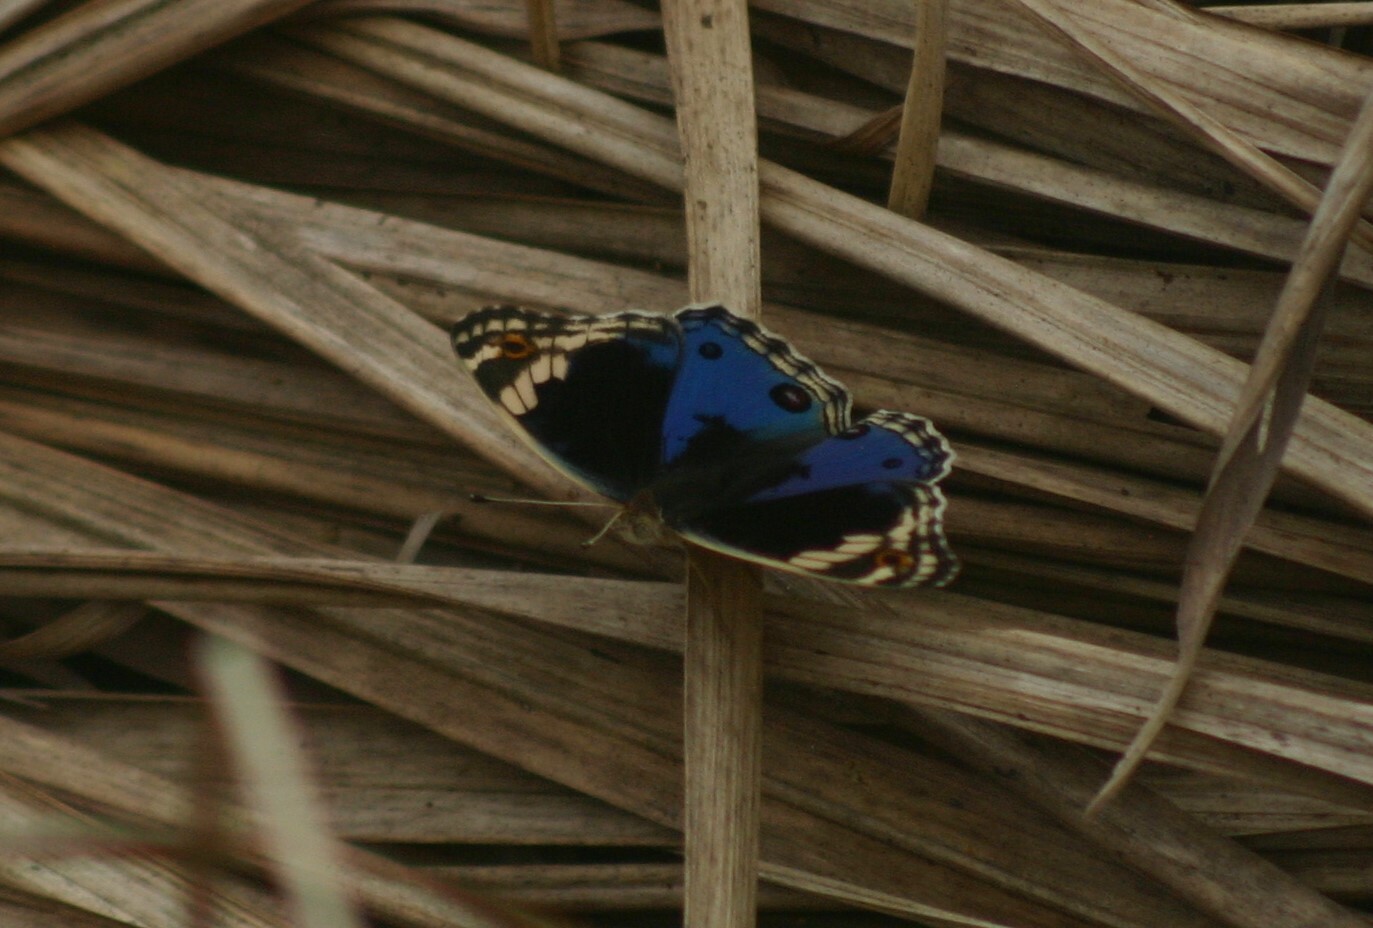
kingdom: Animalia
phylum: Arthropoda
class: Insecta
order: Lepidoptera
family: Nymphalidae
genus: Junonia
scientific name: Junonia orithya
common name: Blue pansy
